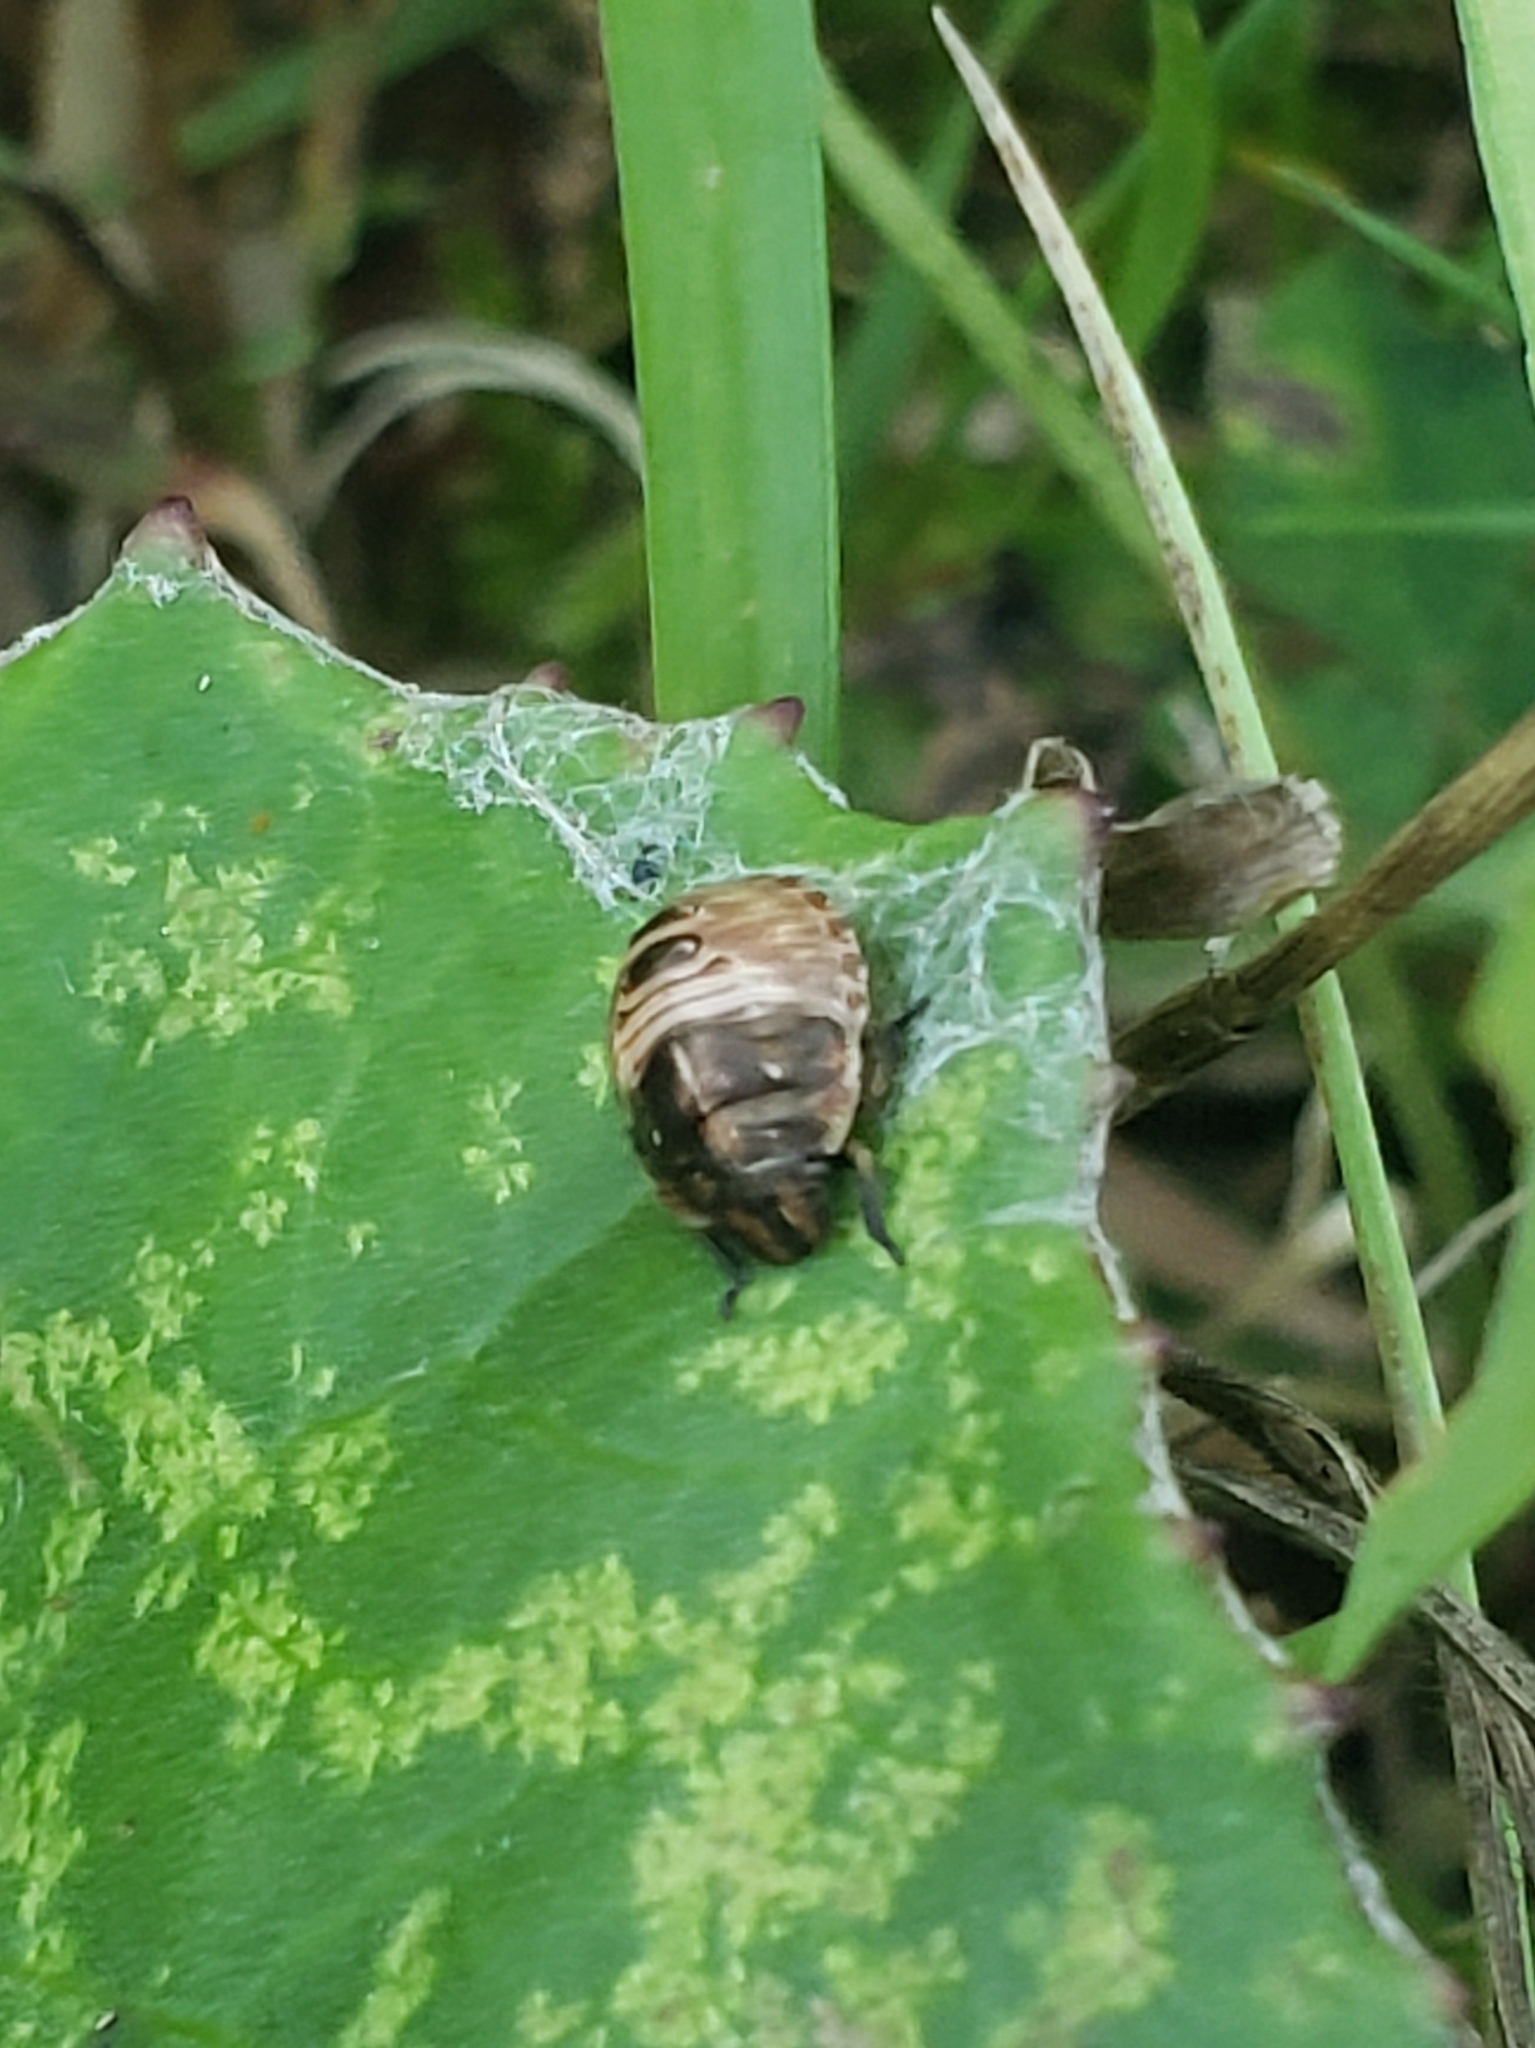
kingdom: Animalia
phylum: Arthropoda
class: Insecta
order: Hemiptera
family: Scutelleridae
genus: Eurygaster
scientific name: Eurygaster testudinaria
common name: Tortoise bug
